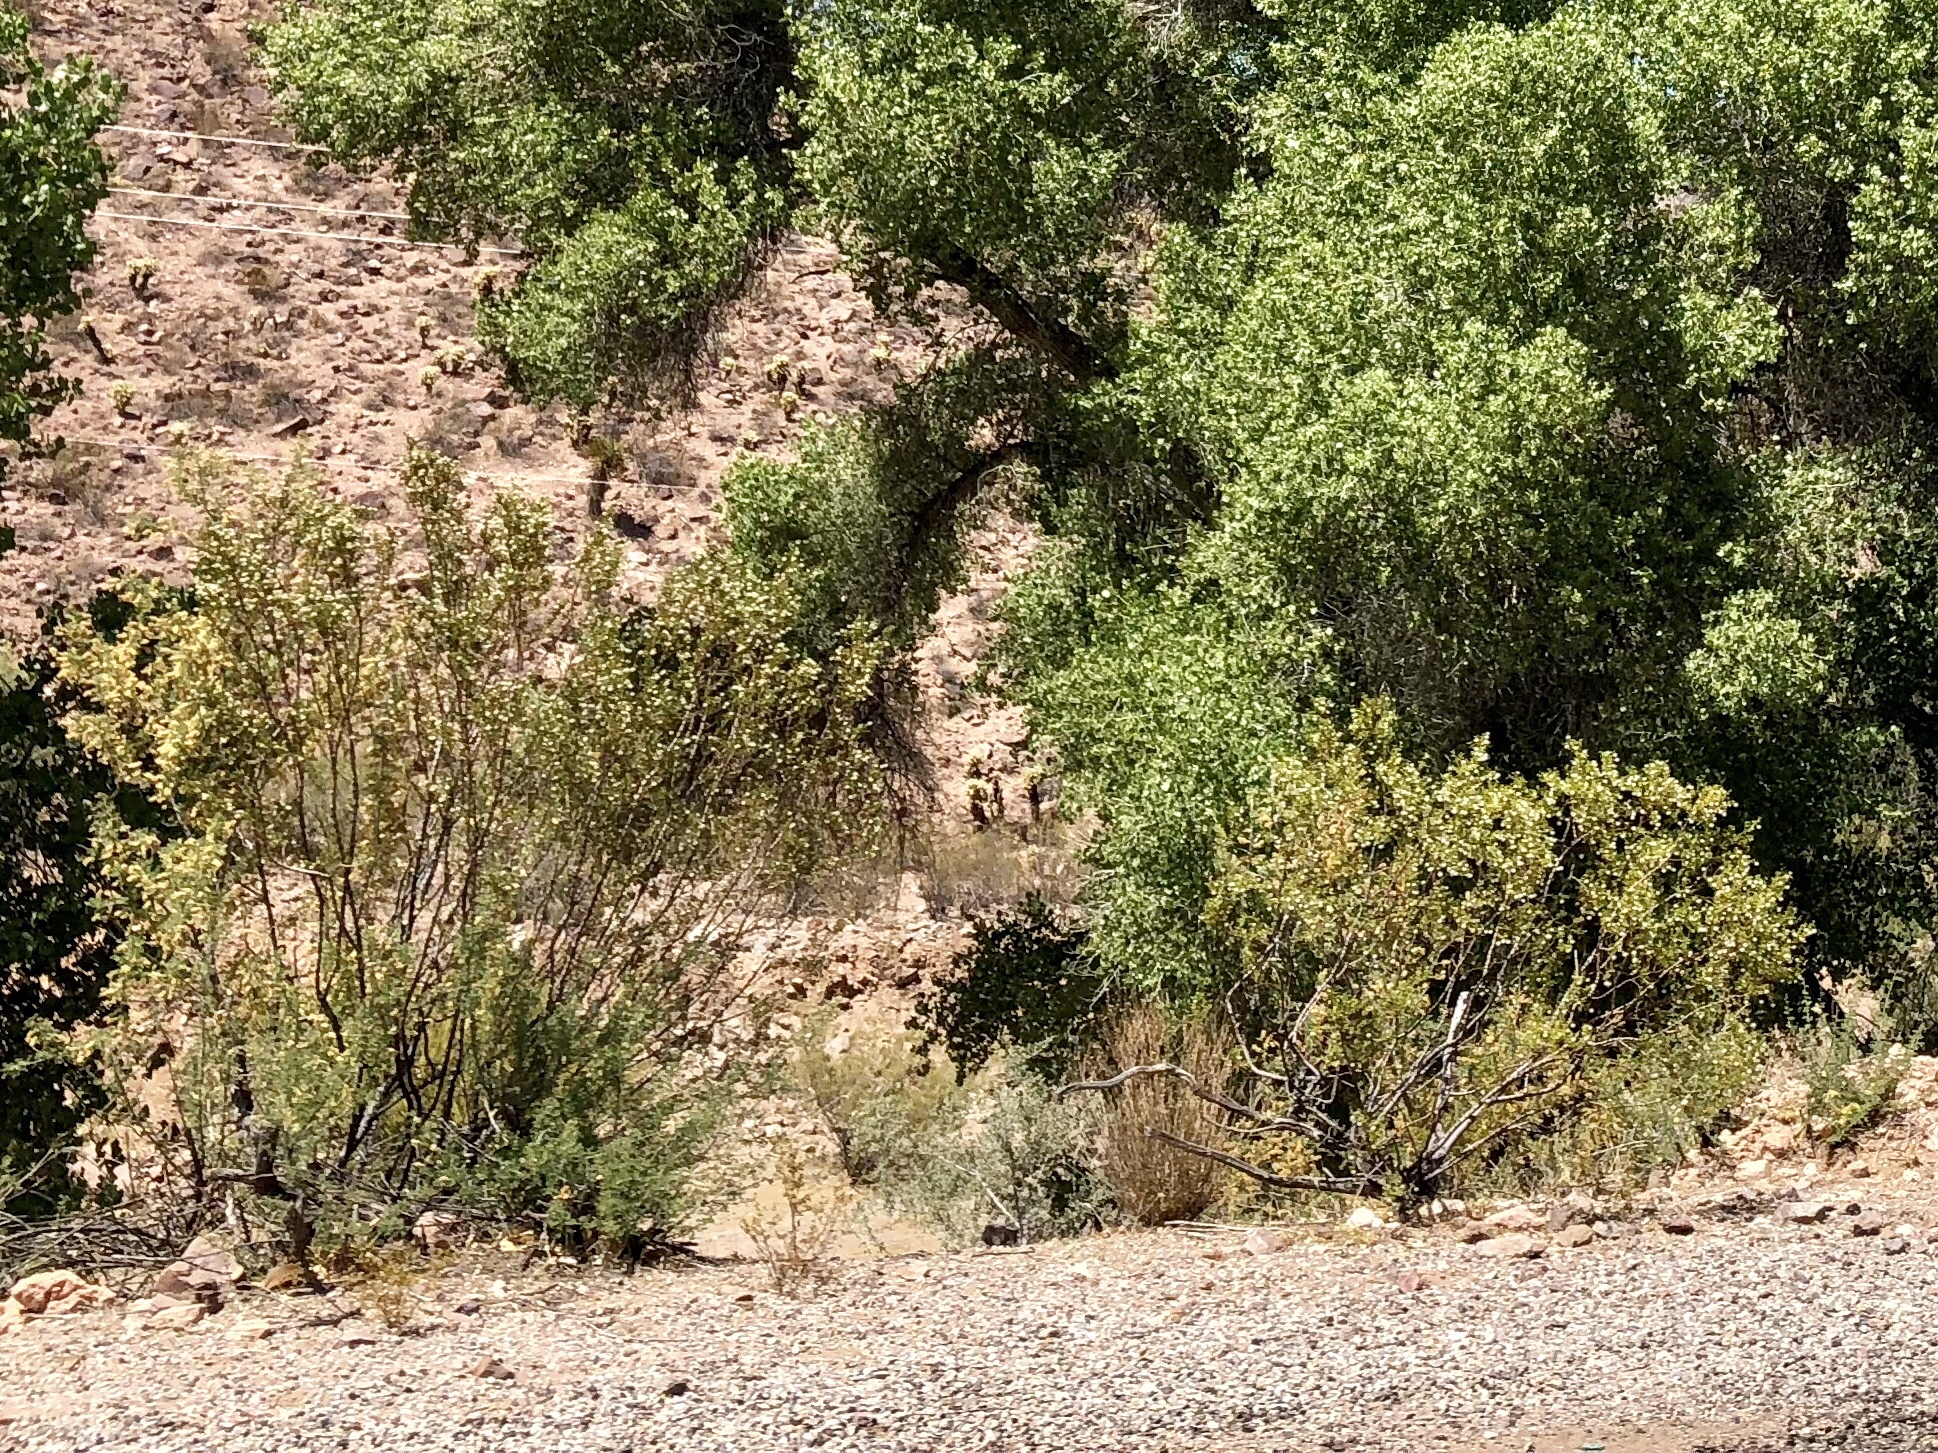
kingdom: Plantae
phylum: Tracheophyta
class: Magnoliopsida
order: Zygophyllales
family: Zygophyllaceae
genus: Larrea
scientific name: Larrea tridentata
